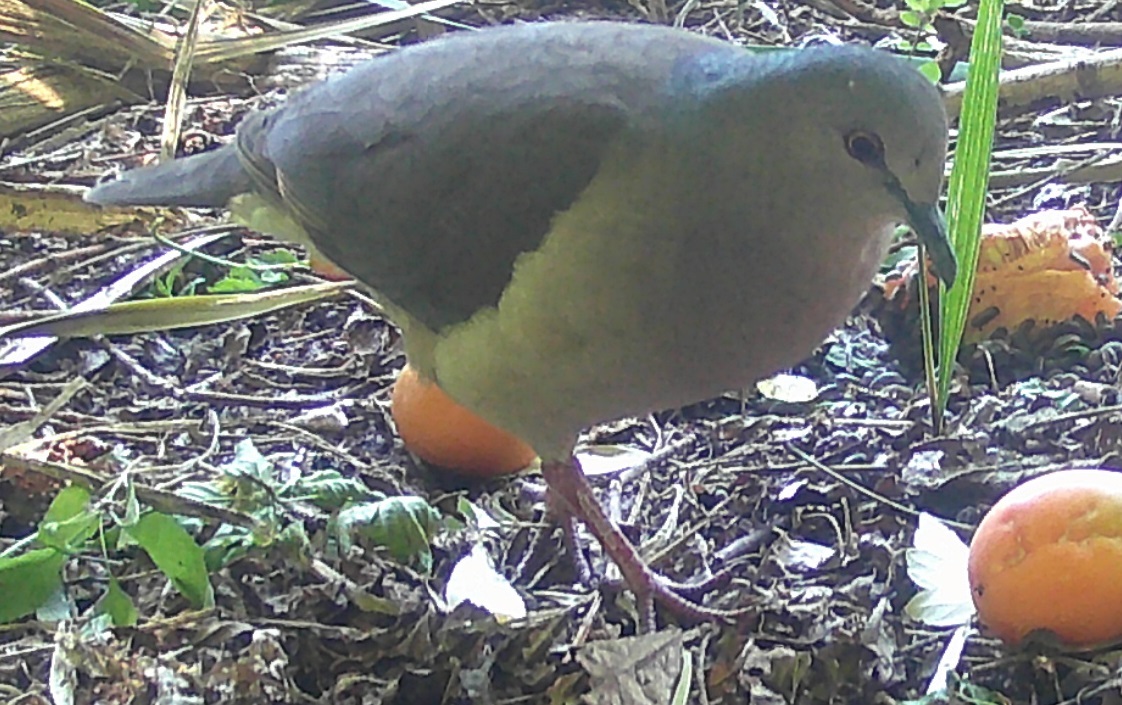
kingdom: Animalia
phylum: Chordata
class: Aves
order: Columbiformes
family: Columbidae
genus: Leptotila
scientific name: Leptotila verreauxi
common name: White-tipped dove
